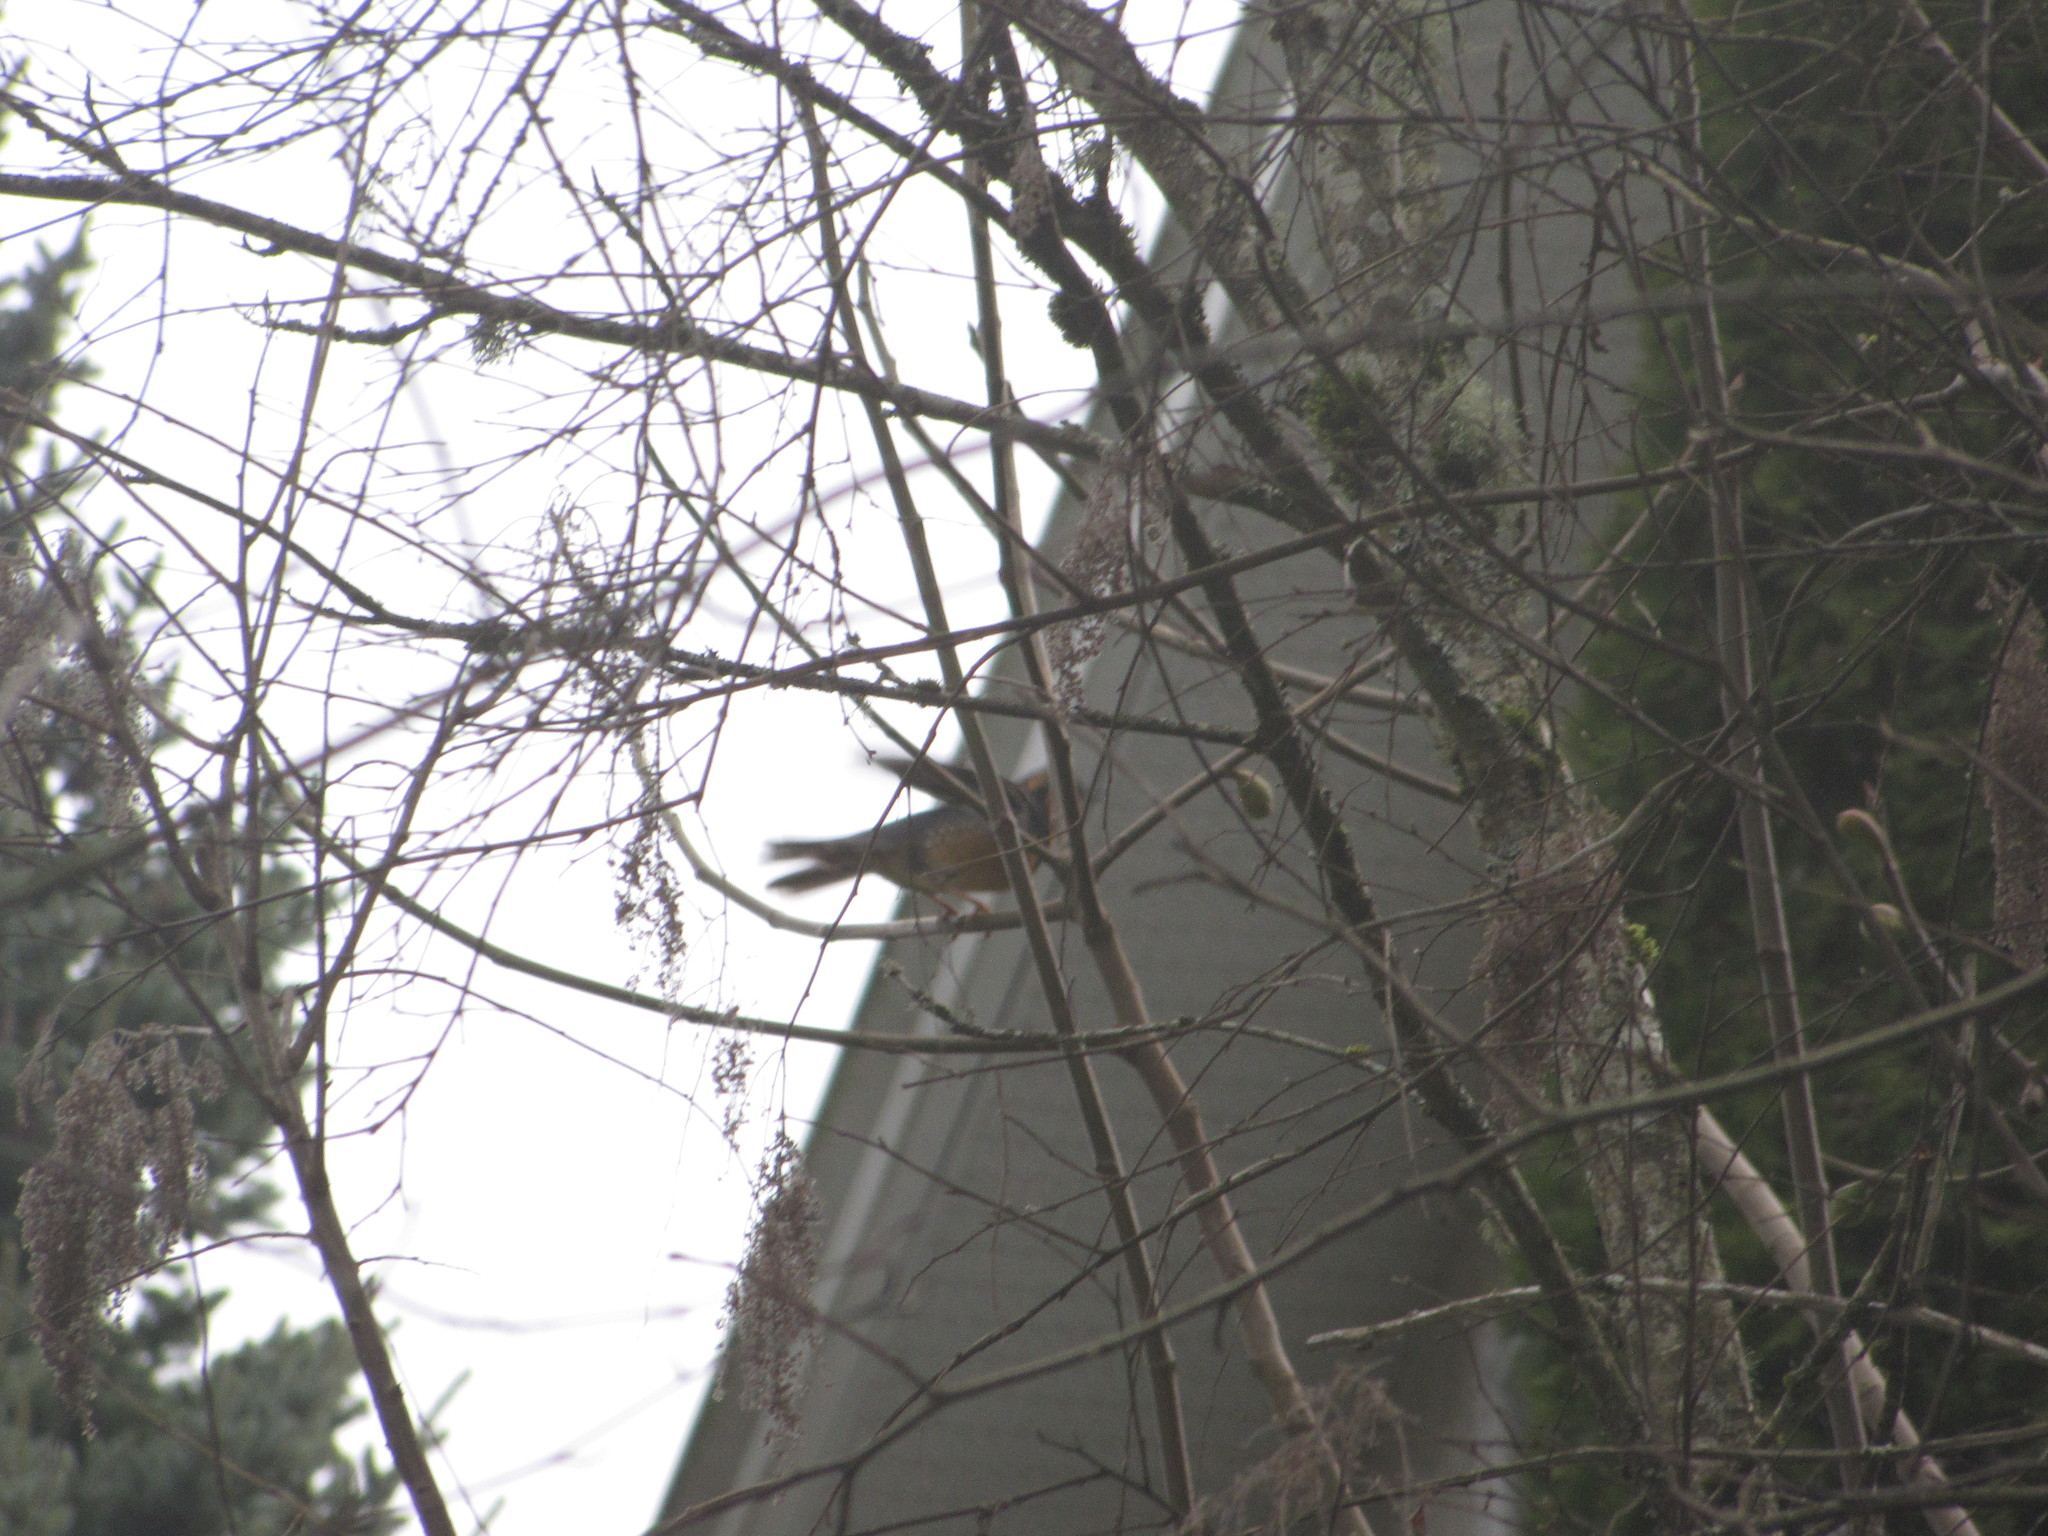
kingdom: Animalia
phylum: Chordata
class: Aves
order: Passeriformes
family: Turdidae
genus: Ixoreus
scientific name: Ixoreus naevius
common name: Varied thrush
